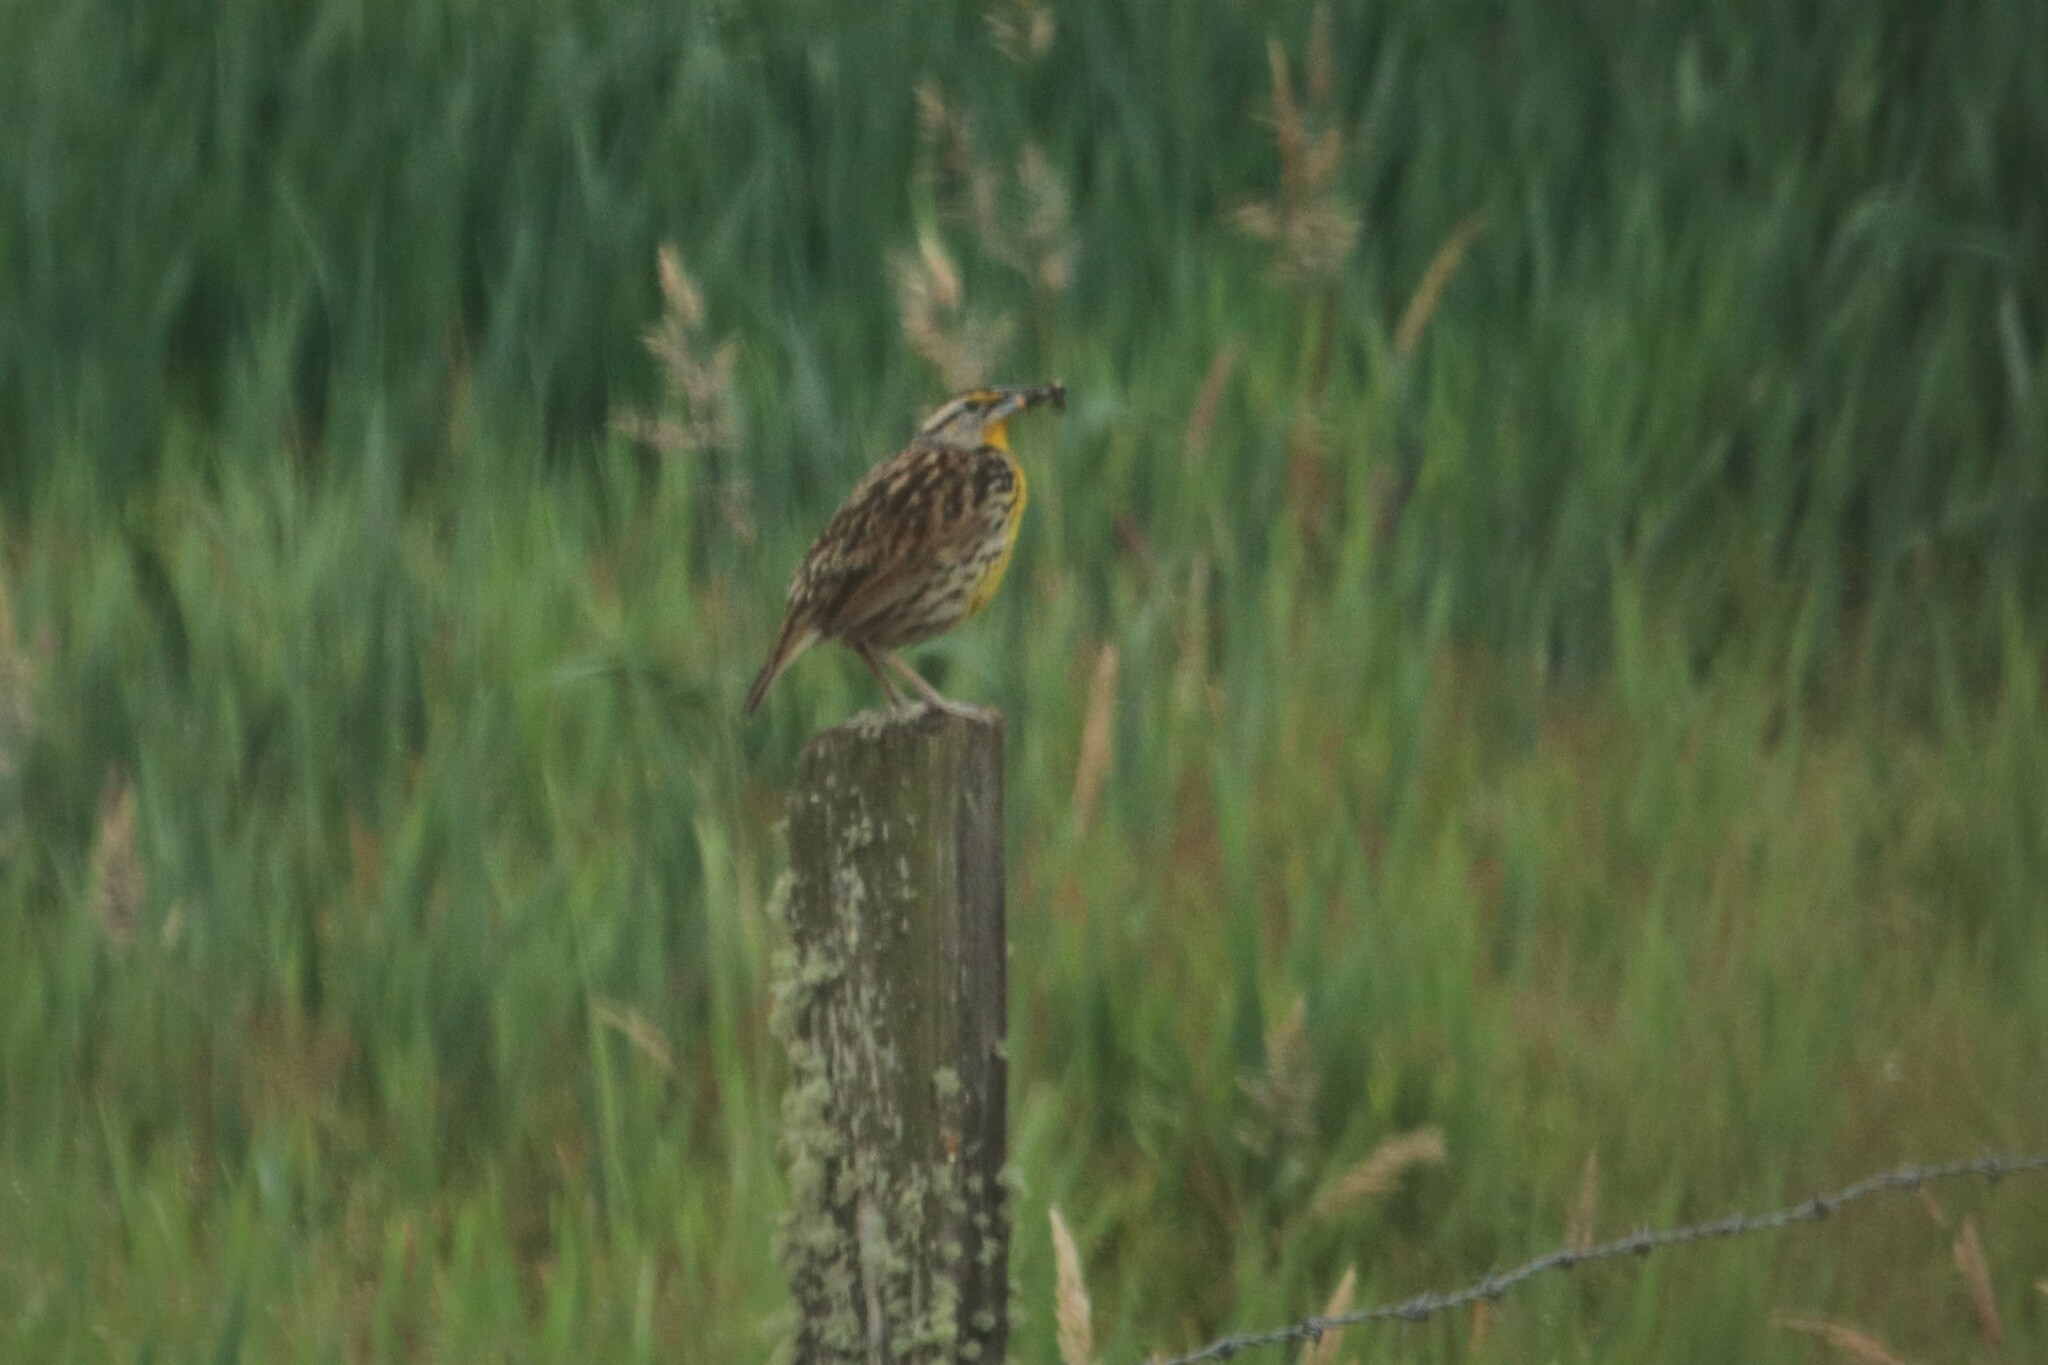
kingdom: Animalia
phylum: Chordata
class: Aves
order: Passeriformes
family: Icteridae
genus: Sturnella
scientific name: Sturnella magna
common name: Eastern meadowlark
